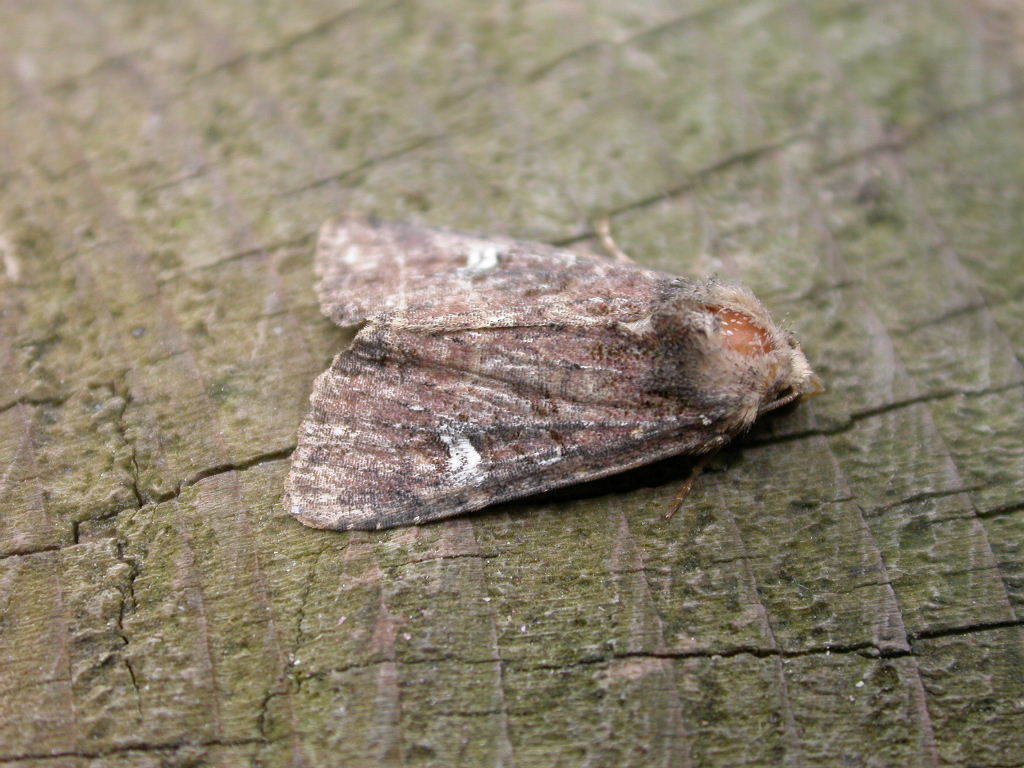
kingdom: Animalia
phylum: Arthropoda
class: Insecta
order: Lepidoptera
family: Noctuidae
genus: Mesapamea
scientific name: Mesapamea
